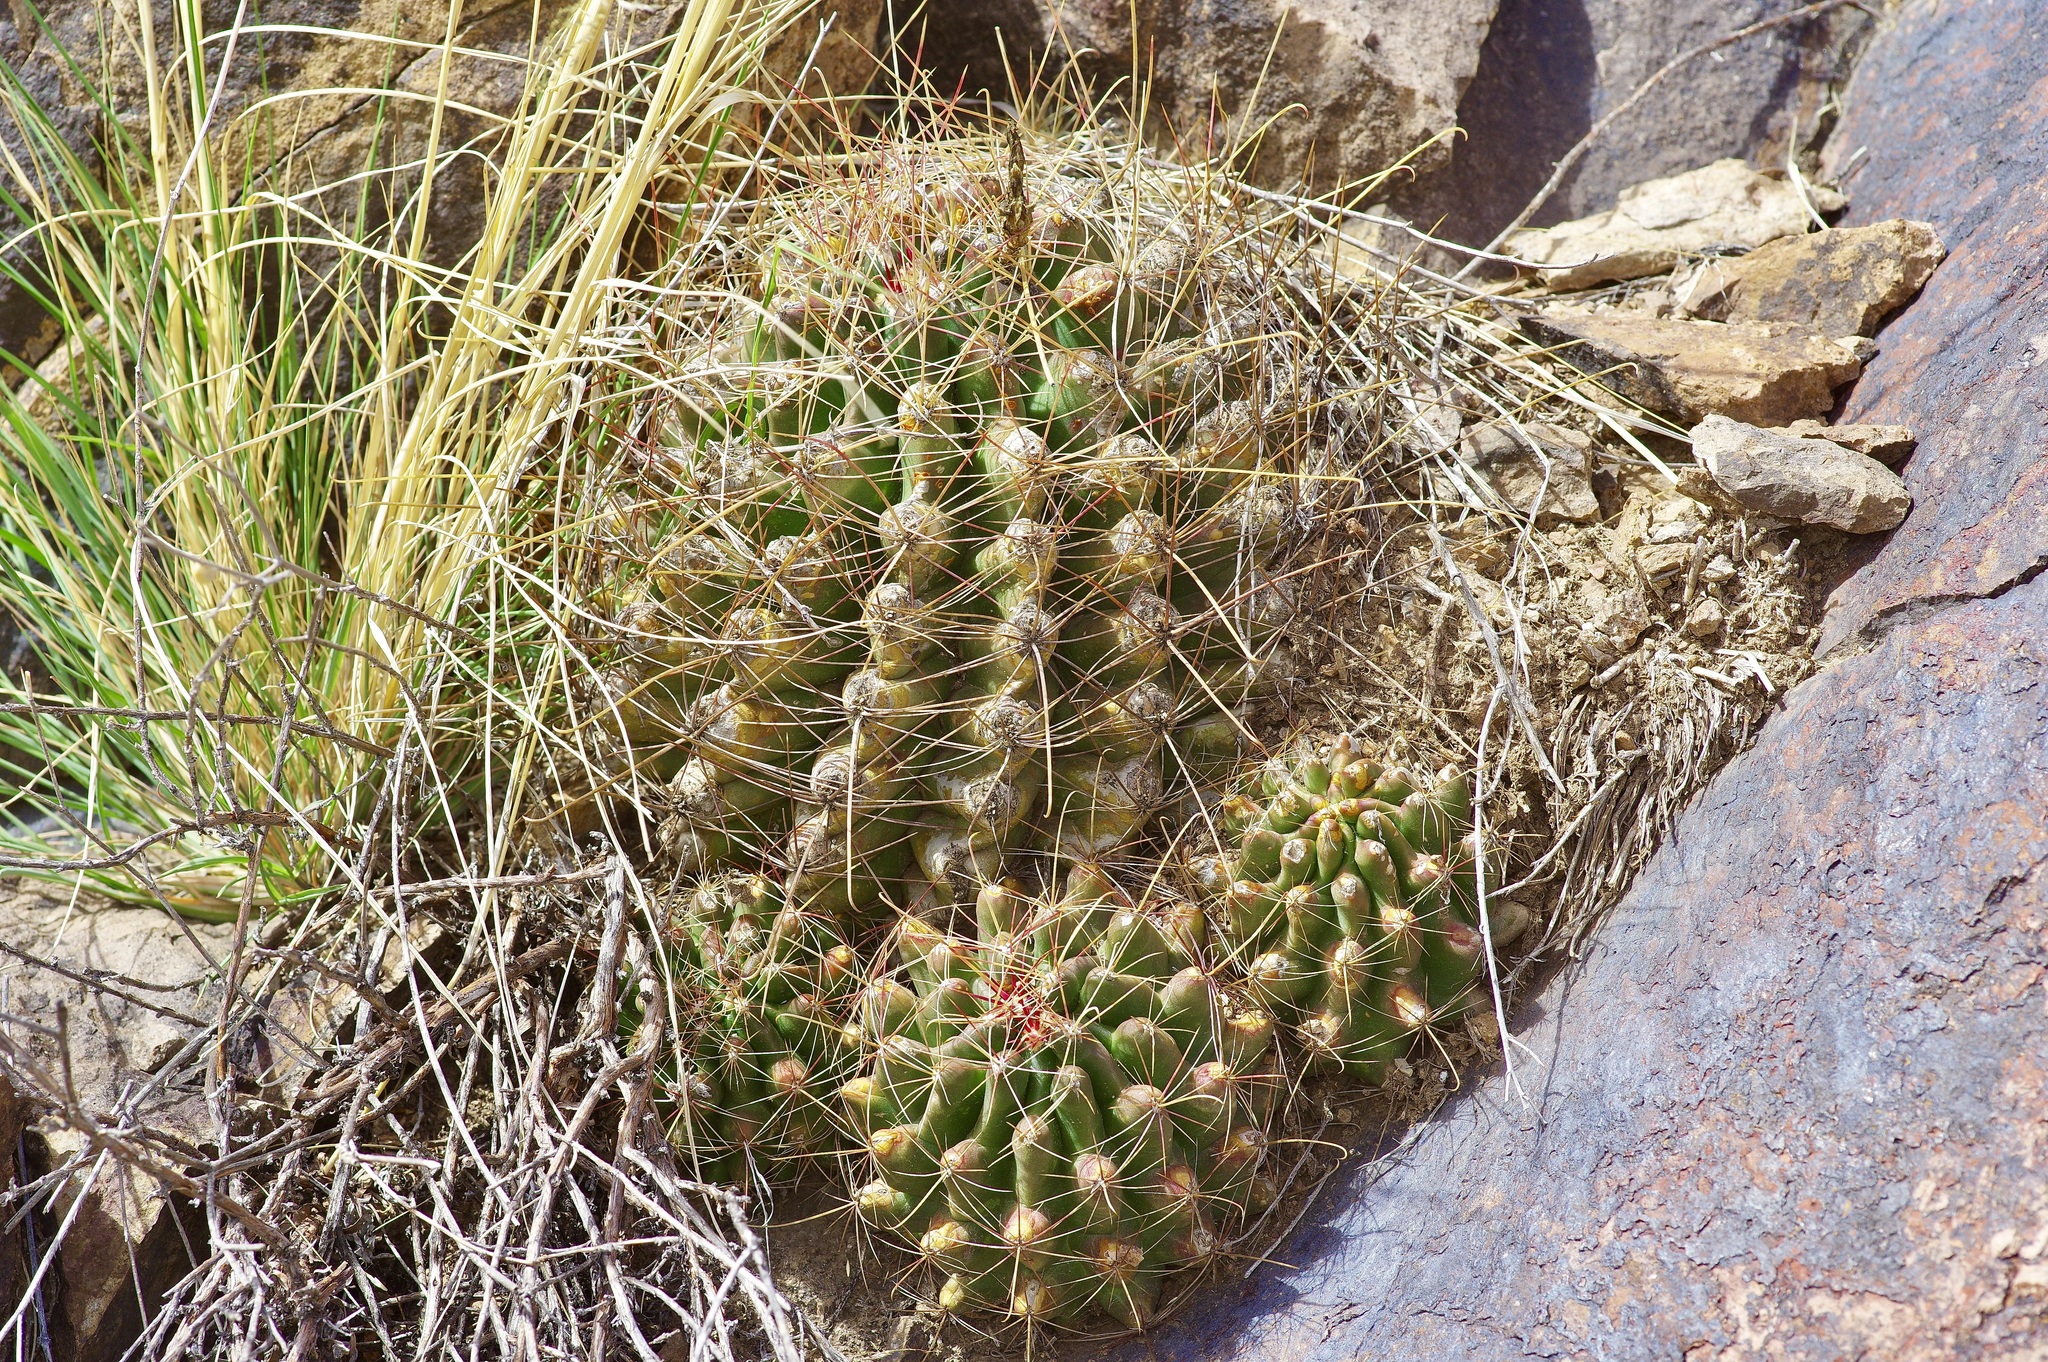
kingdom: Plantae
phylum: Tracheophyta
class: Magnoliopsida
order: Caryophyllales
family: Cactaceae
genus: Bisnaga
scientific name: Bisnaga hamatacantha
